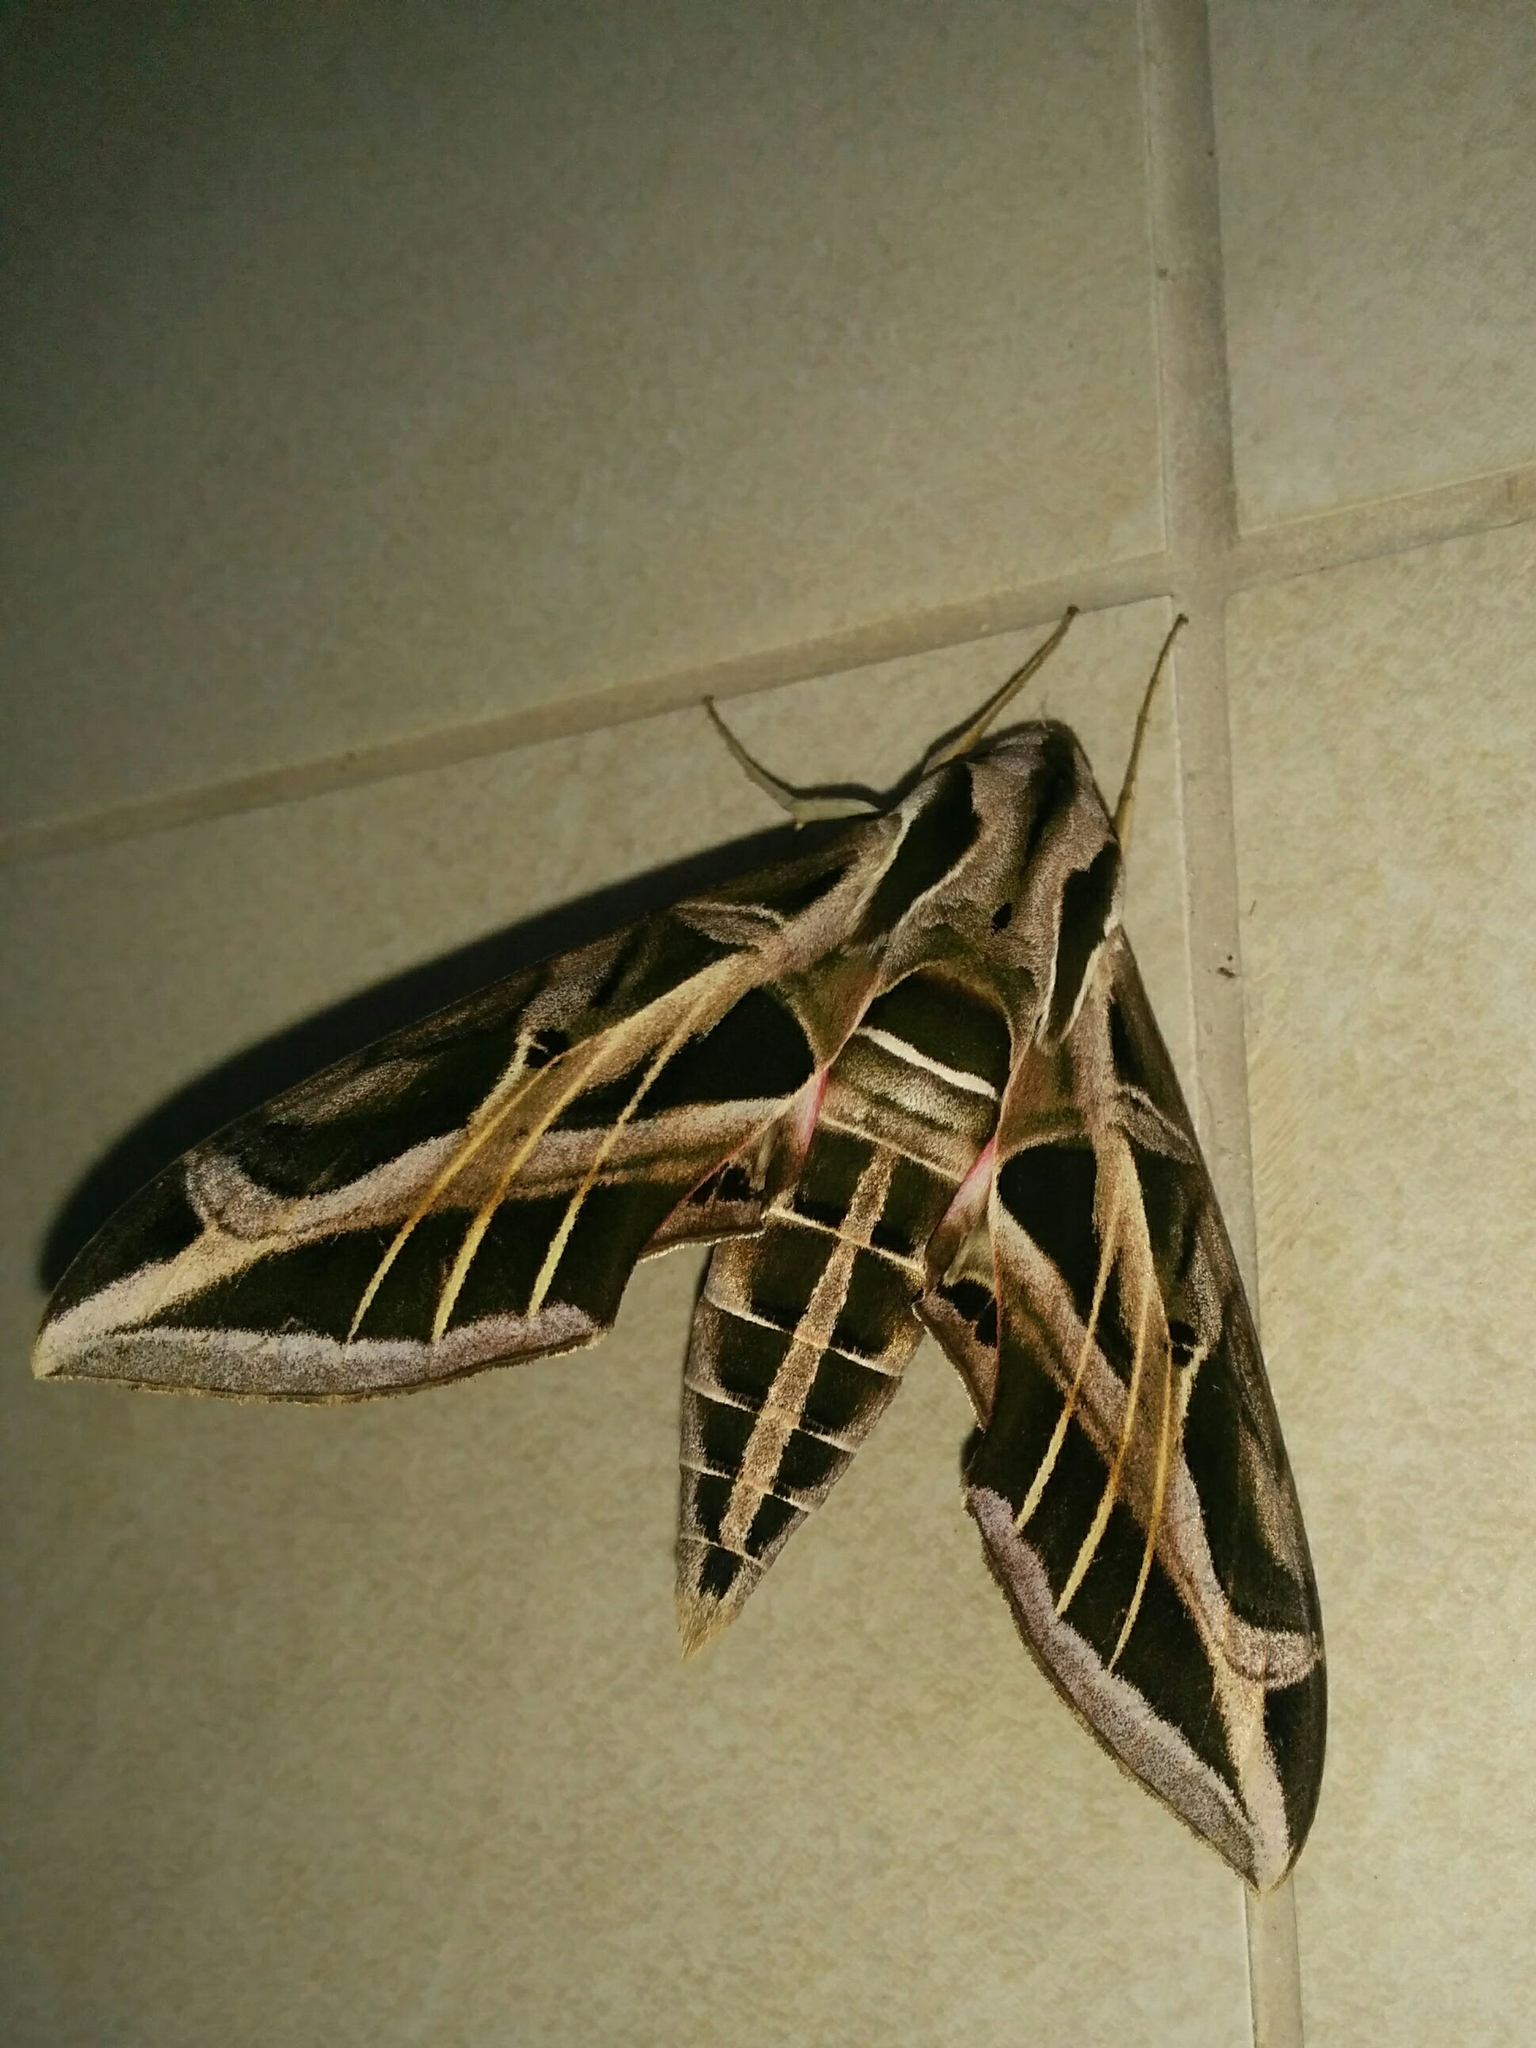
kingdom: Animalia
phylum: Arthropoda
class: Insecta
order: Lepidoptera
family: Sphingidae
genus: Eumorpha
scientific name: Eumorpha vitis
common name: Vine sphinx
